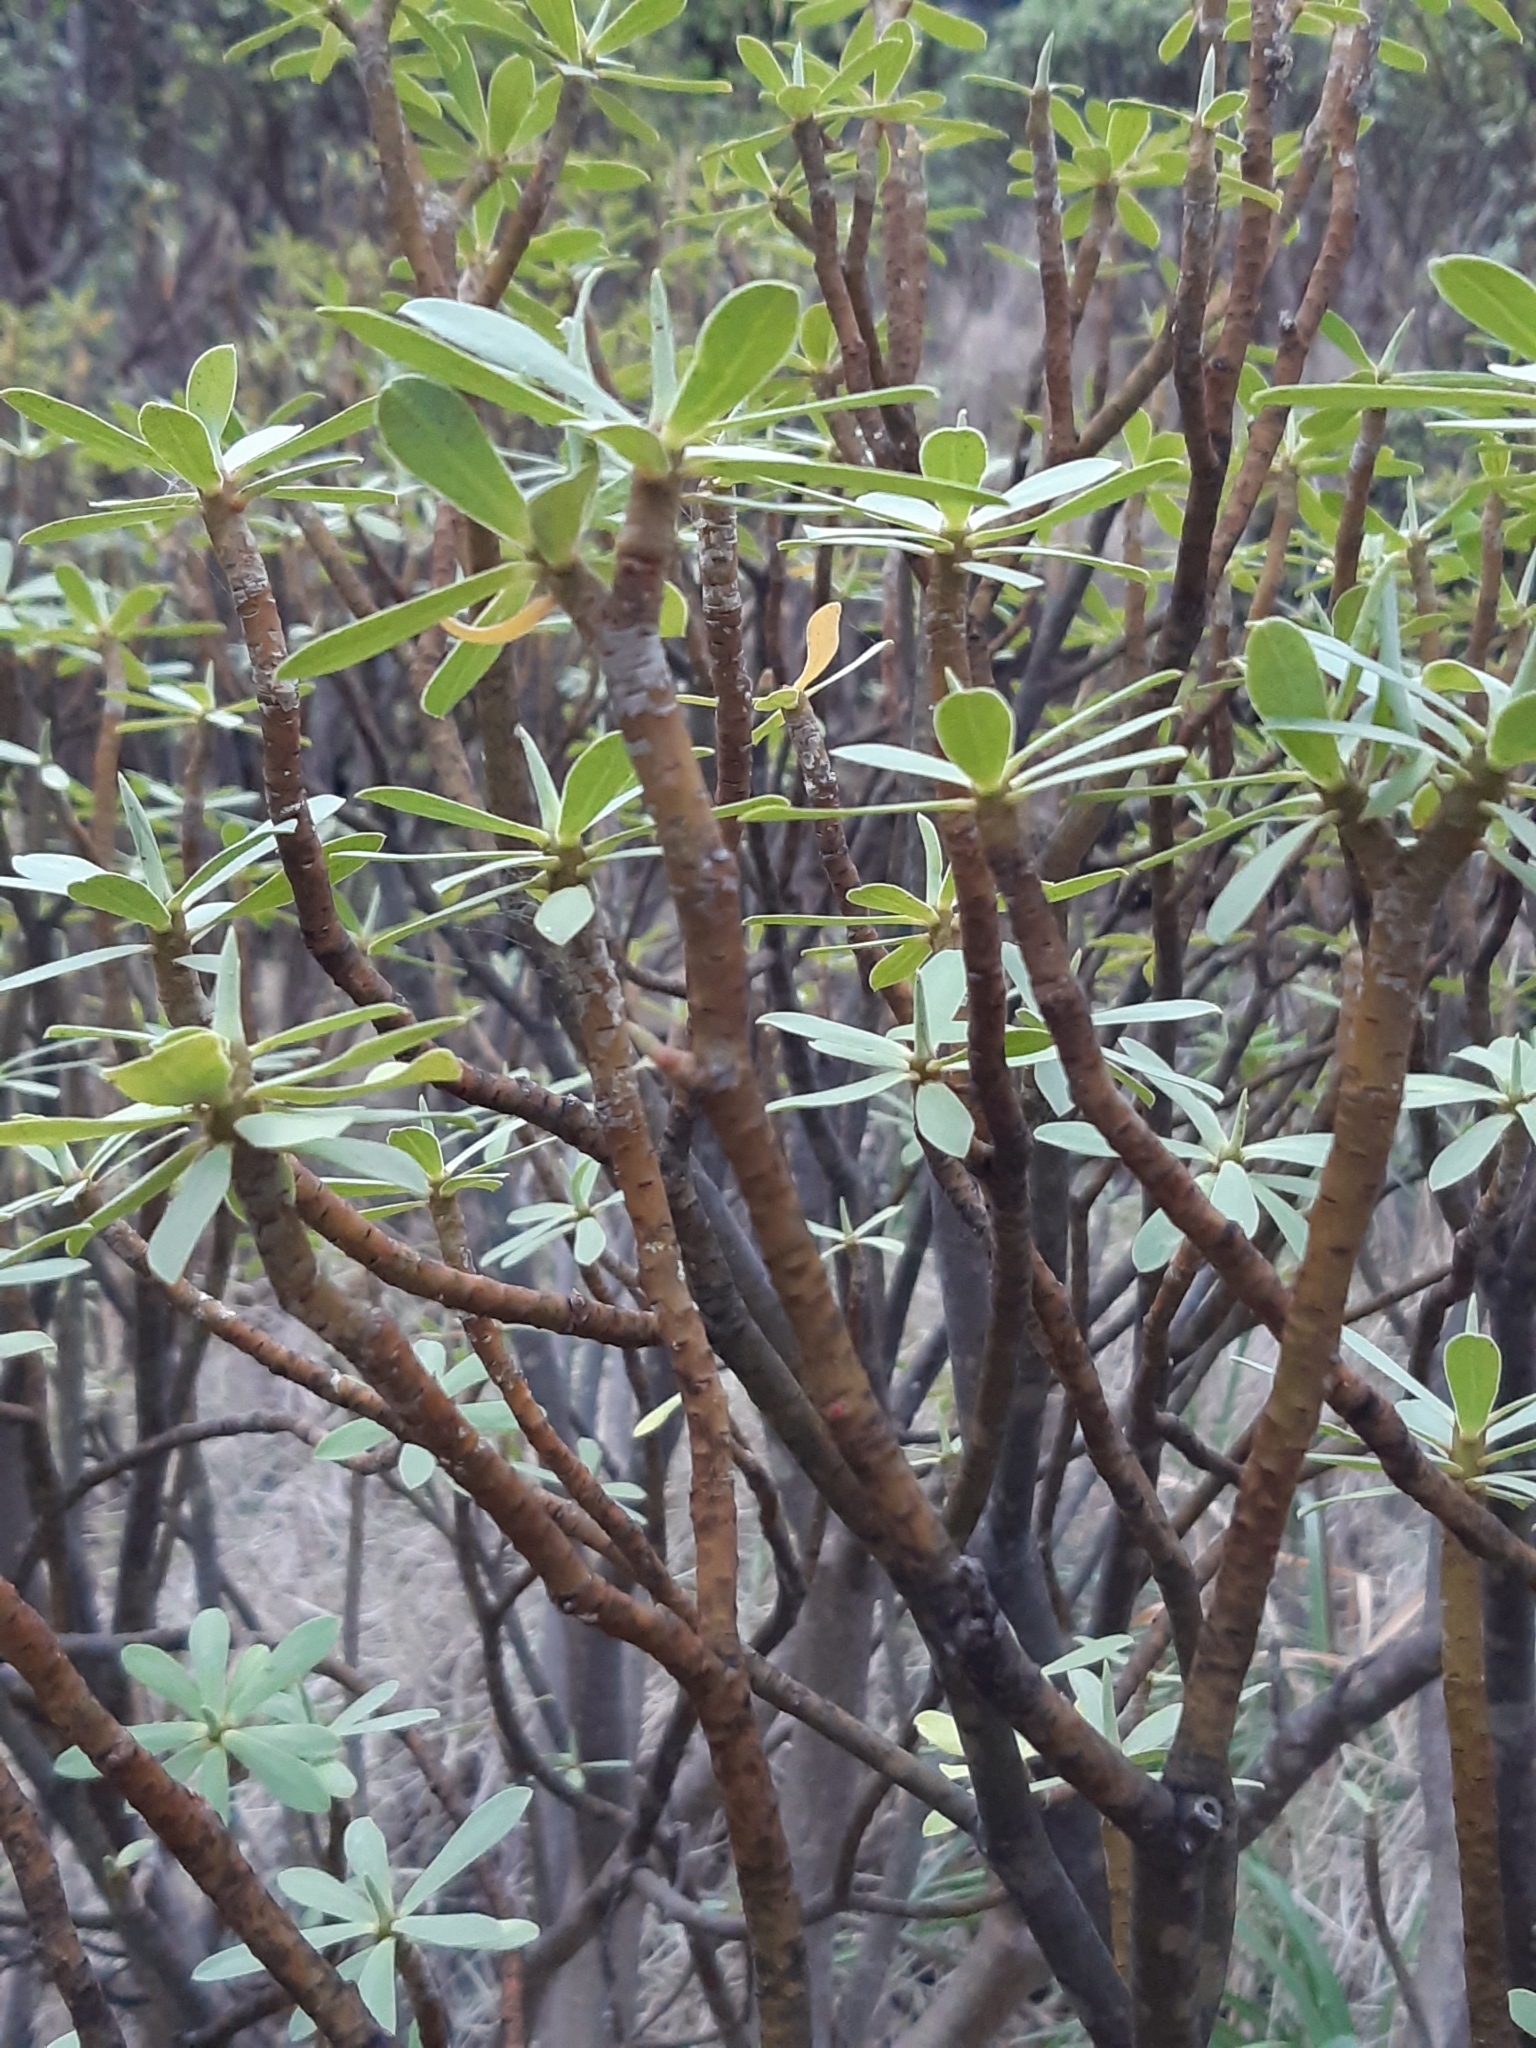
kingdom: Plantae
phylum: Tracheophyta
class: Magnoliopsida
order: Malpighiales
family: Euphorbiaceae
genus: Euphorbia
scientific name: Euphorbia balsamifera
